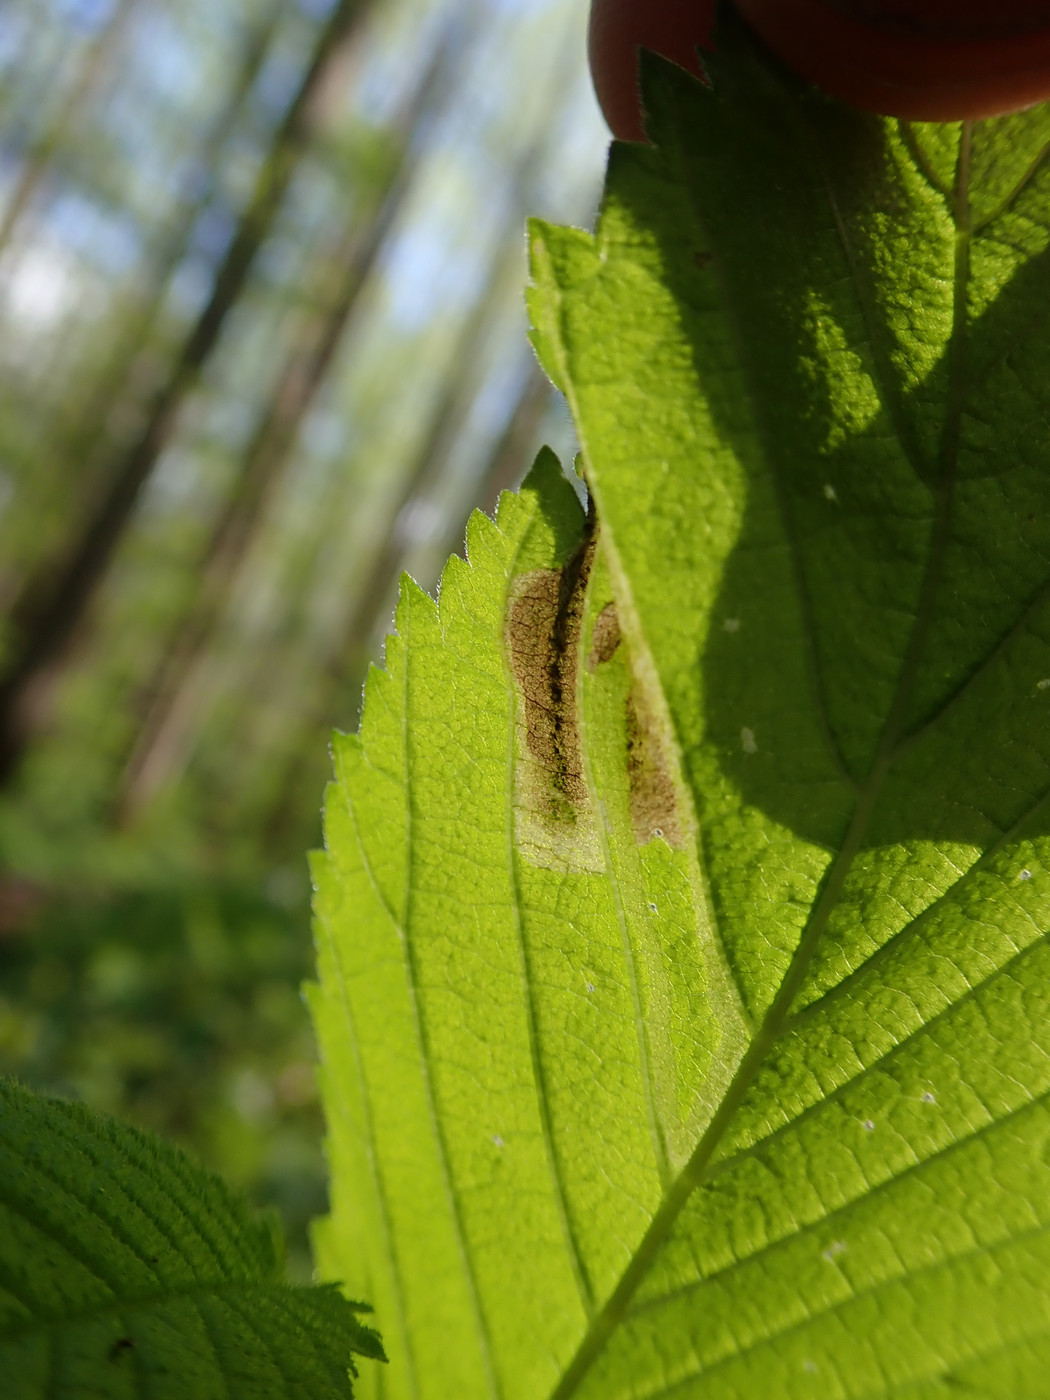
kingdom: Animalia
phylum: Arthropoda
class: Insecta
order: Diptera
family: Agromyzidae
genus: Agromyza
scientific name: Agromyza aristata
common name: Elm agromyzid leafminer
